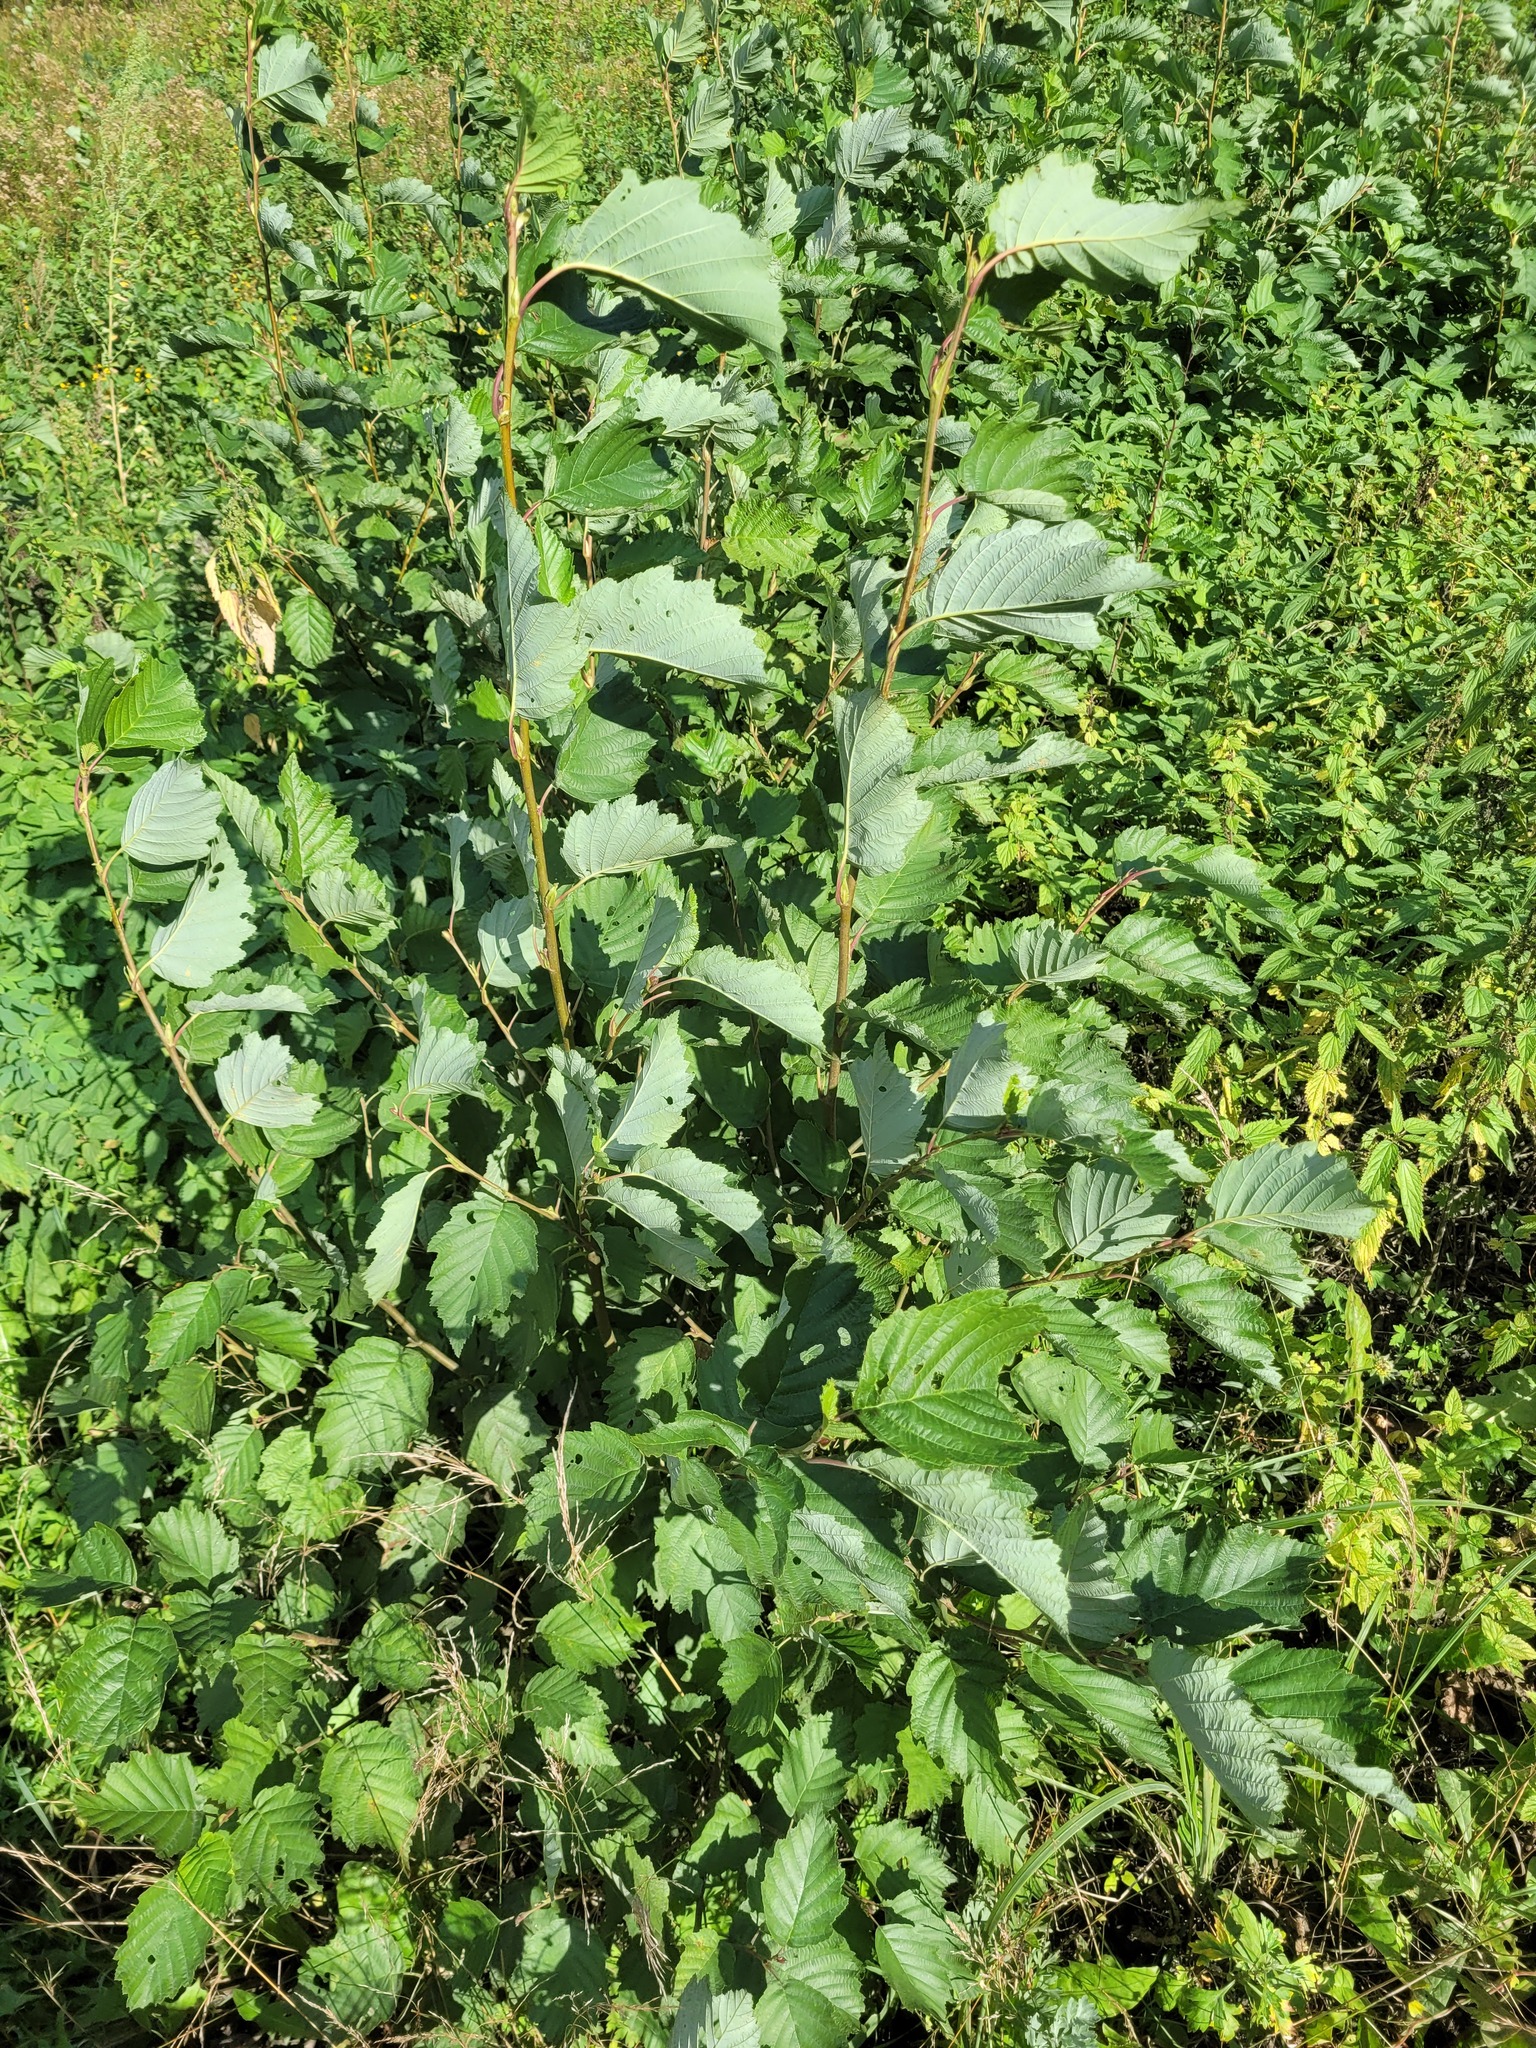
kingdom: Plantae
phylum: Tracheophyta
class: Magnoliopsida
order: Fagales
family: Betulaceae
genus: Alnus
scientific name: Alnus incana
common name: Grey alder
